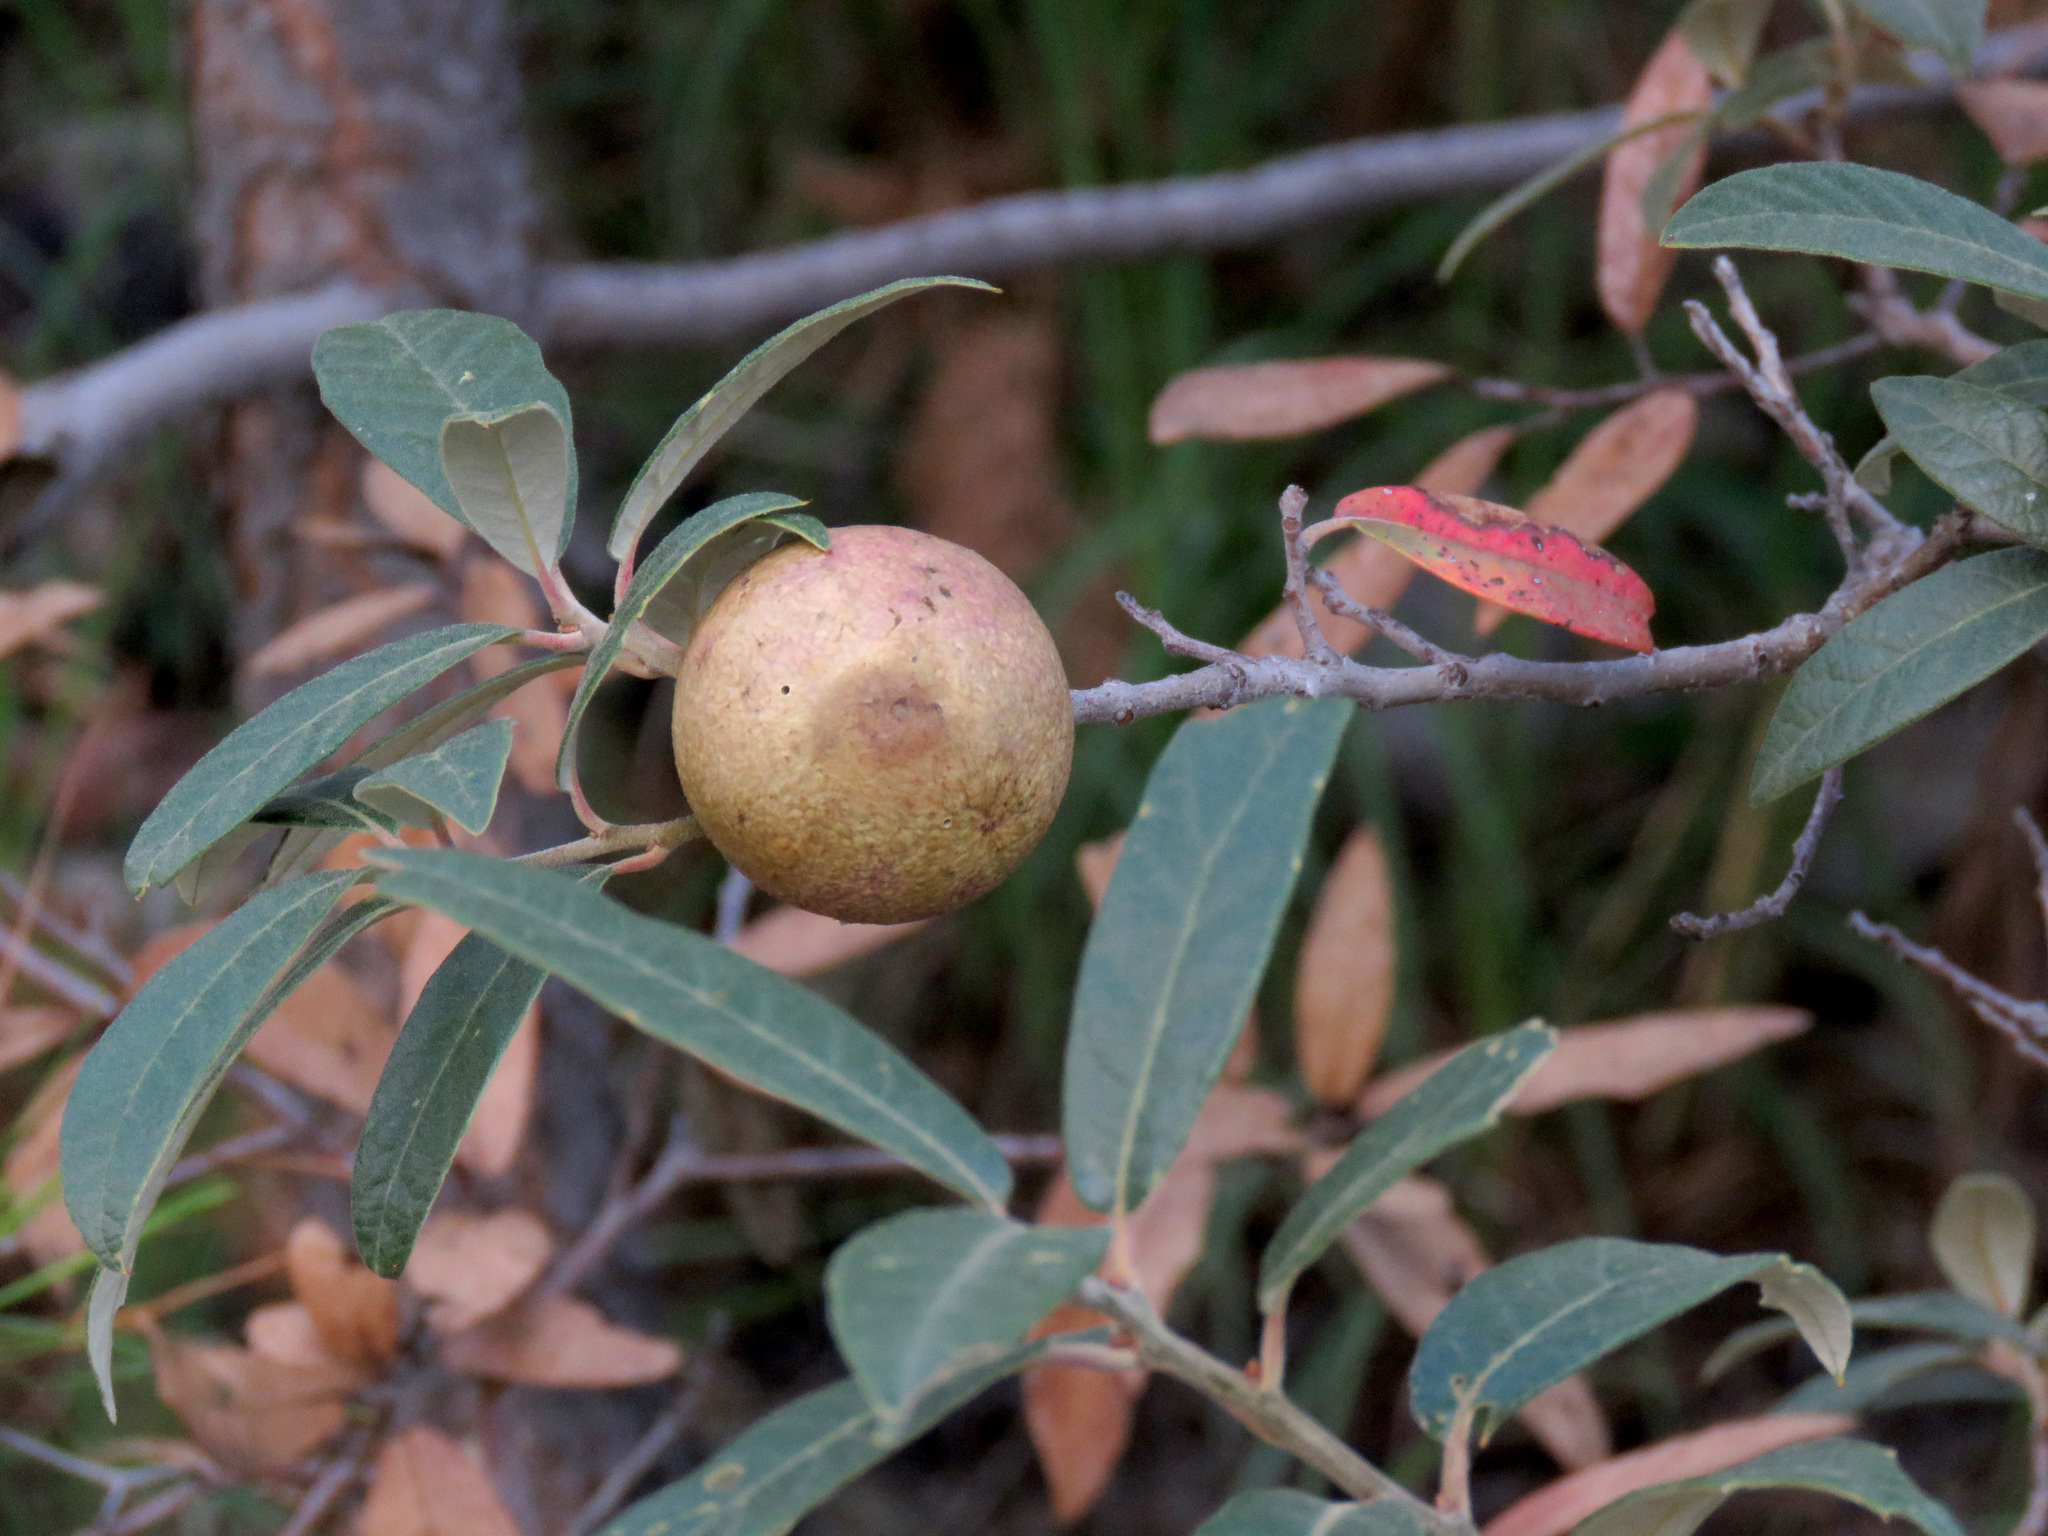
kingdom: Animalia
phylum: Arthropoda
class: Insecta
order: Hymenoptera
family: Cynipidae
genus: Amphibolips
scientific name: Amphibolips
